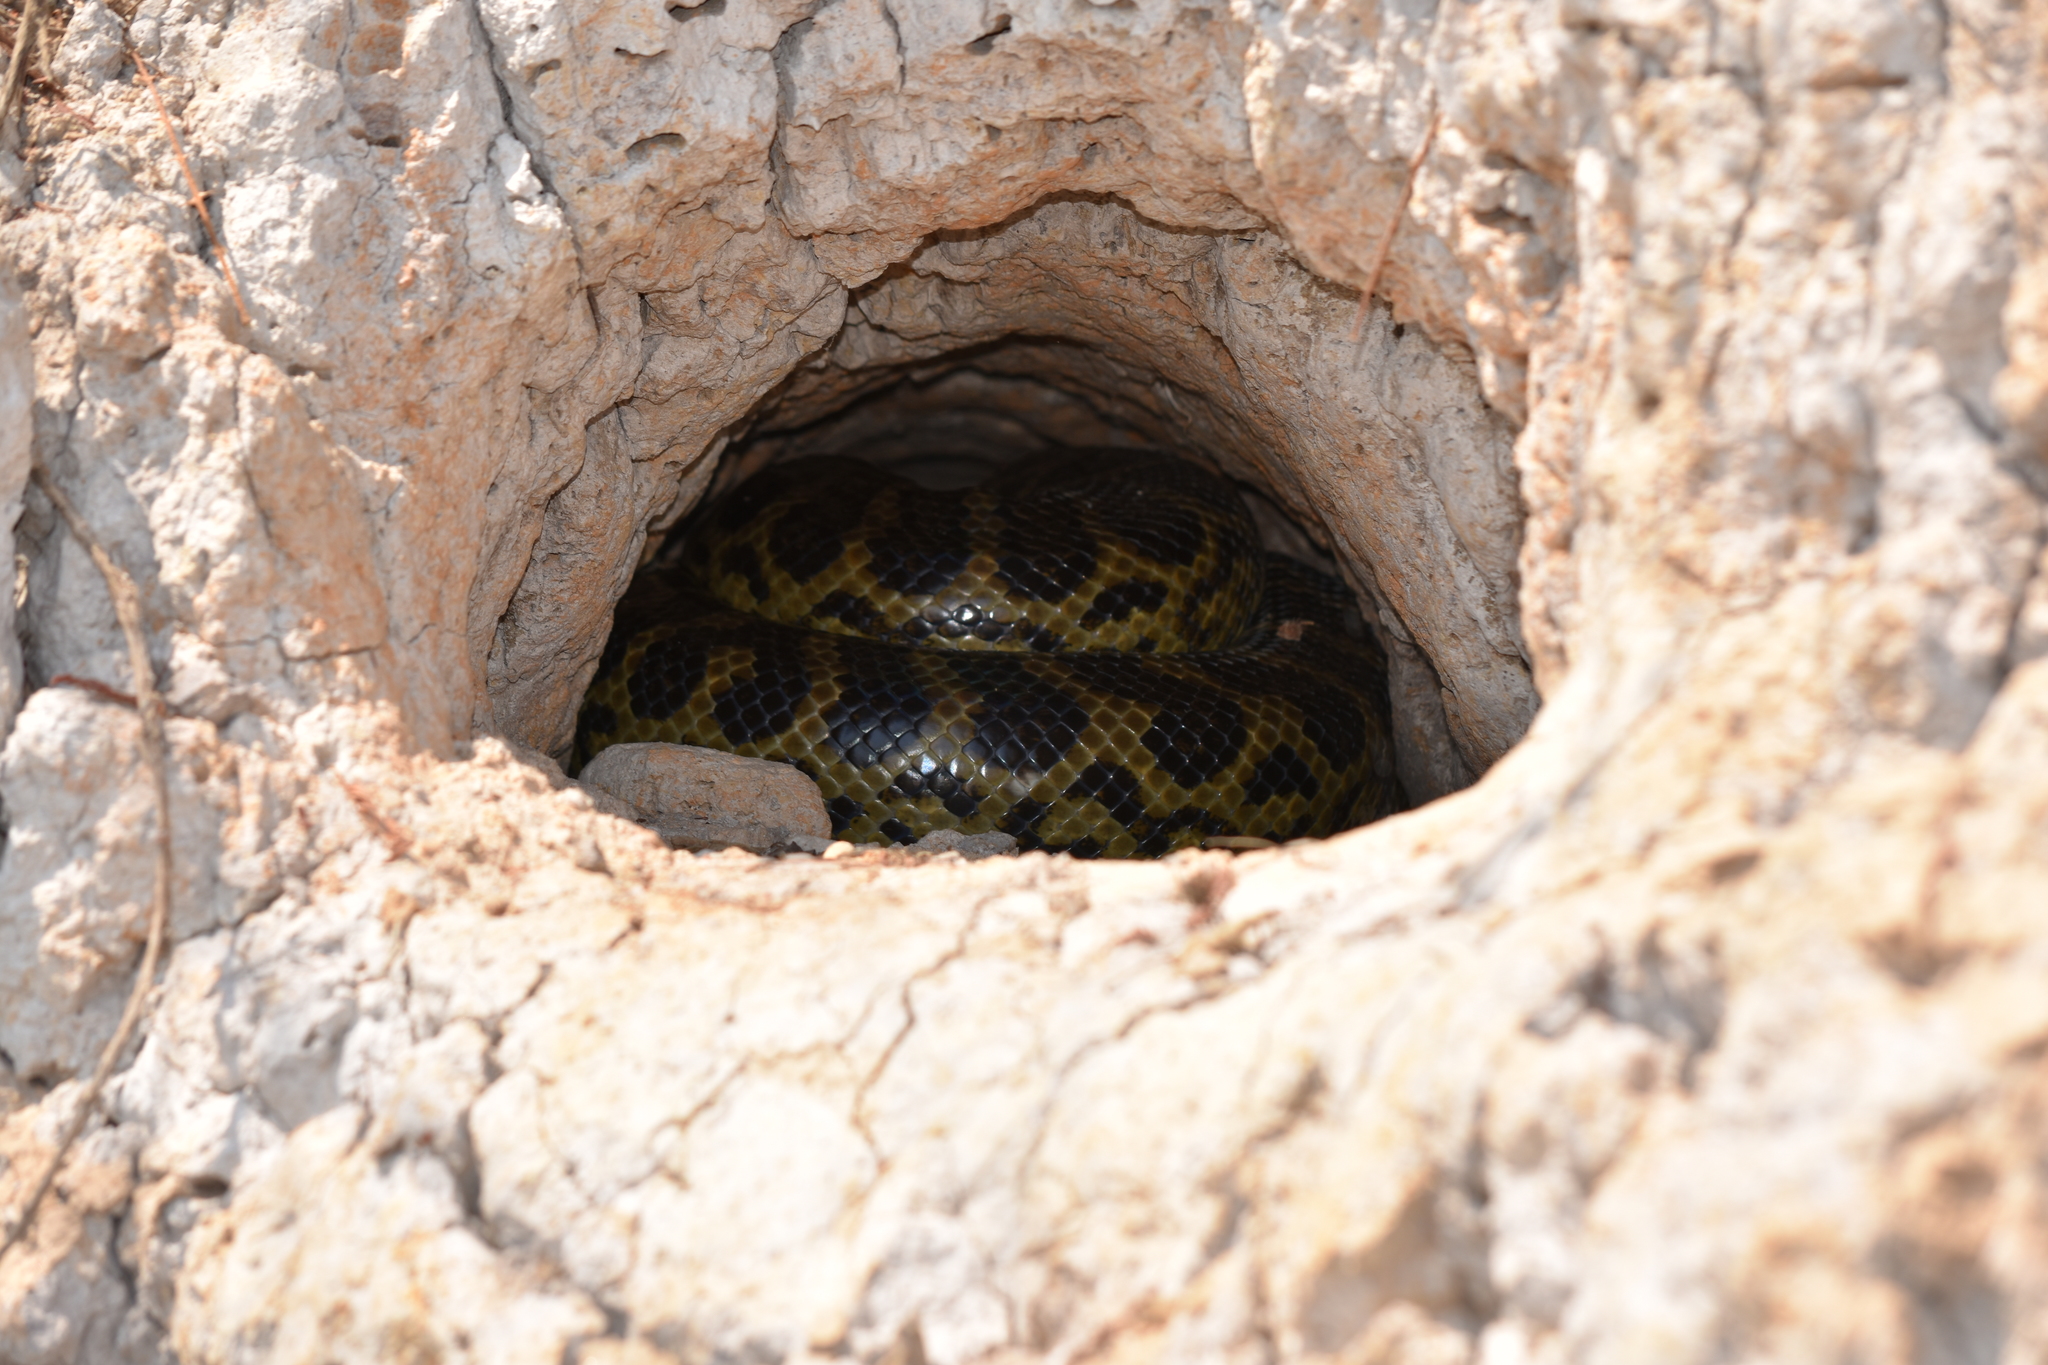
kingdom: Animalia
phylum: Chordata
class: Squamata
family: Boidae
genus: Eunectes
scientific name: Eunectes notaeus
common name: Yellow anaconda
